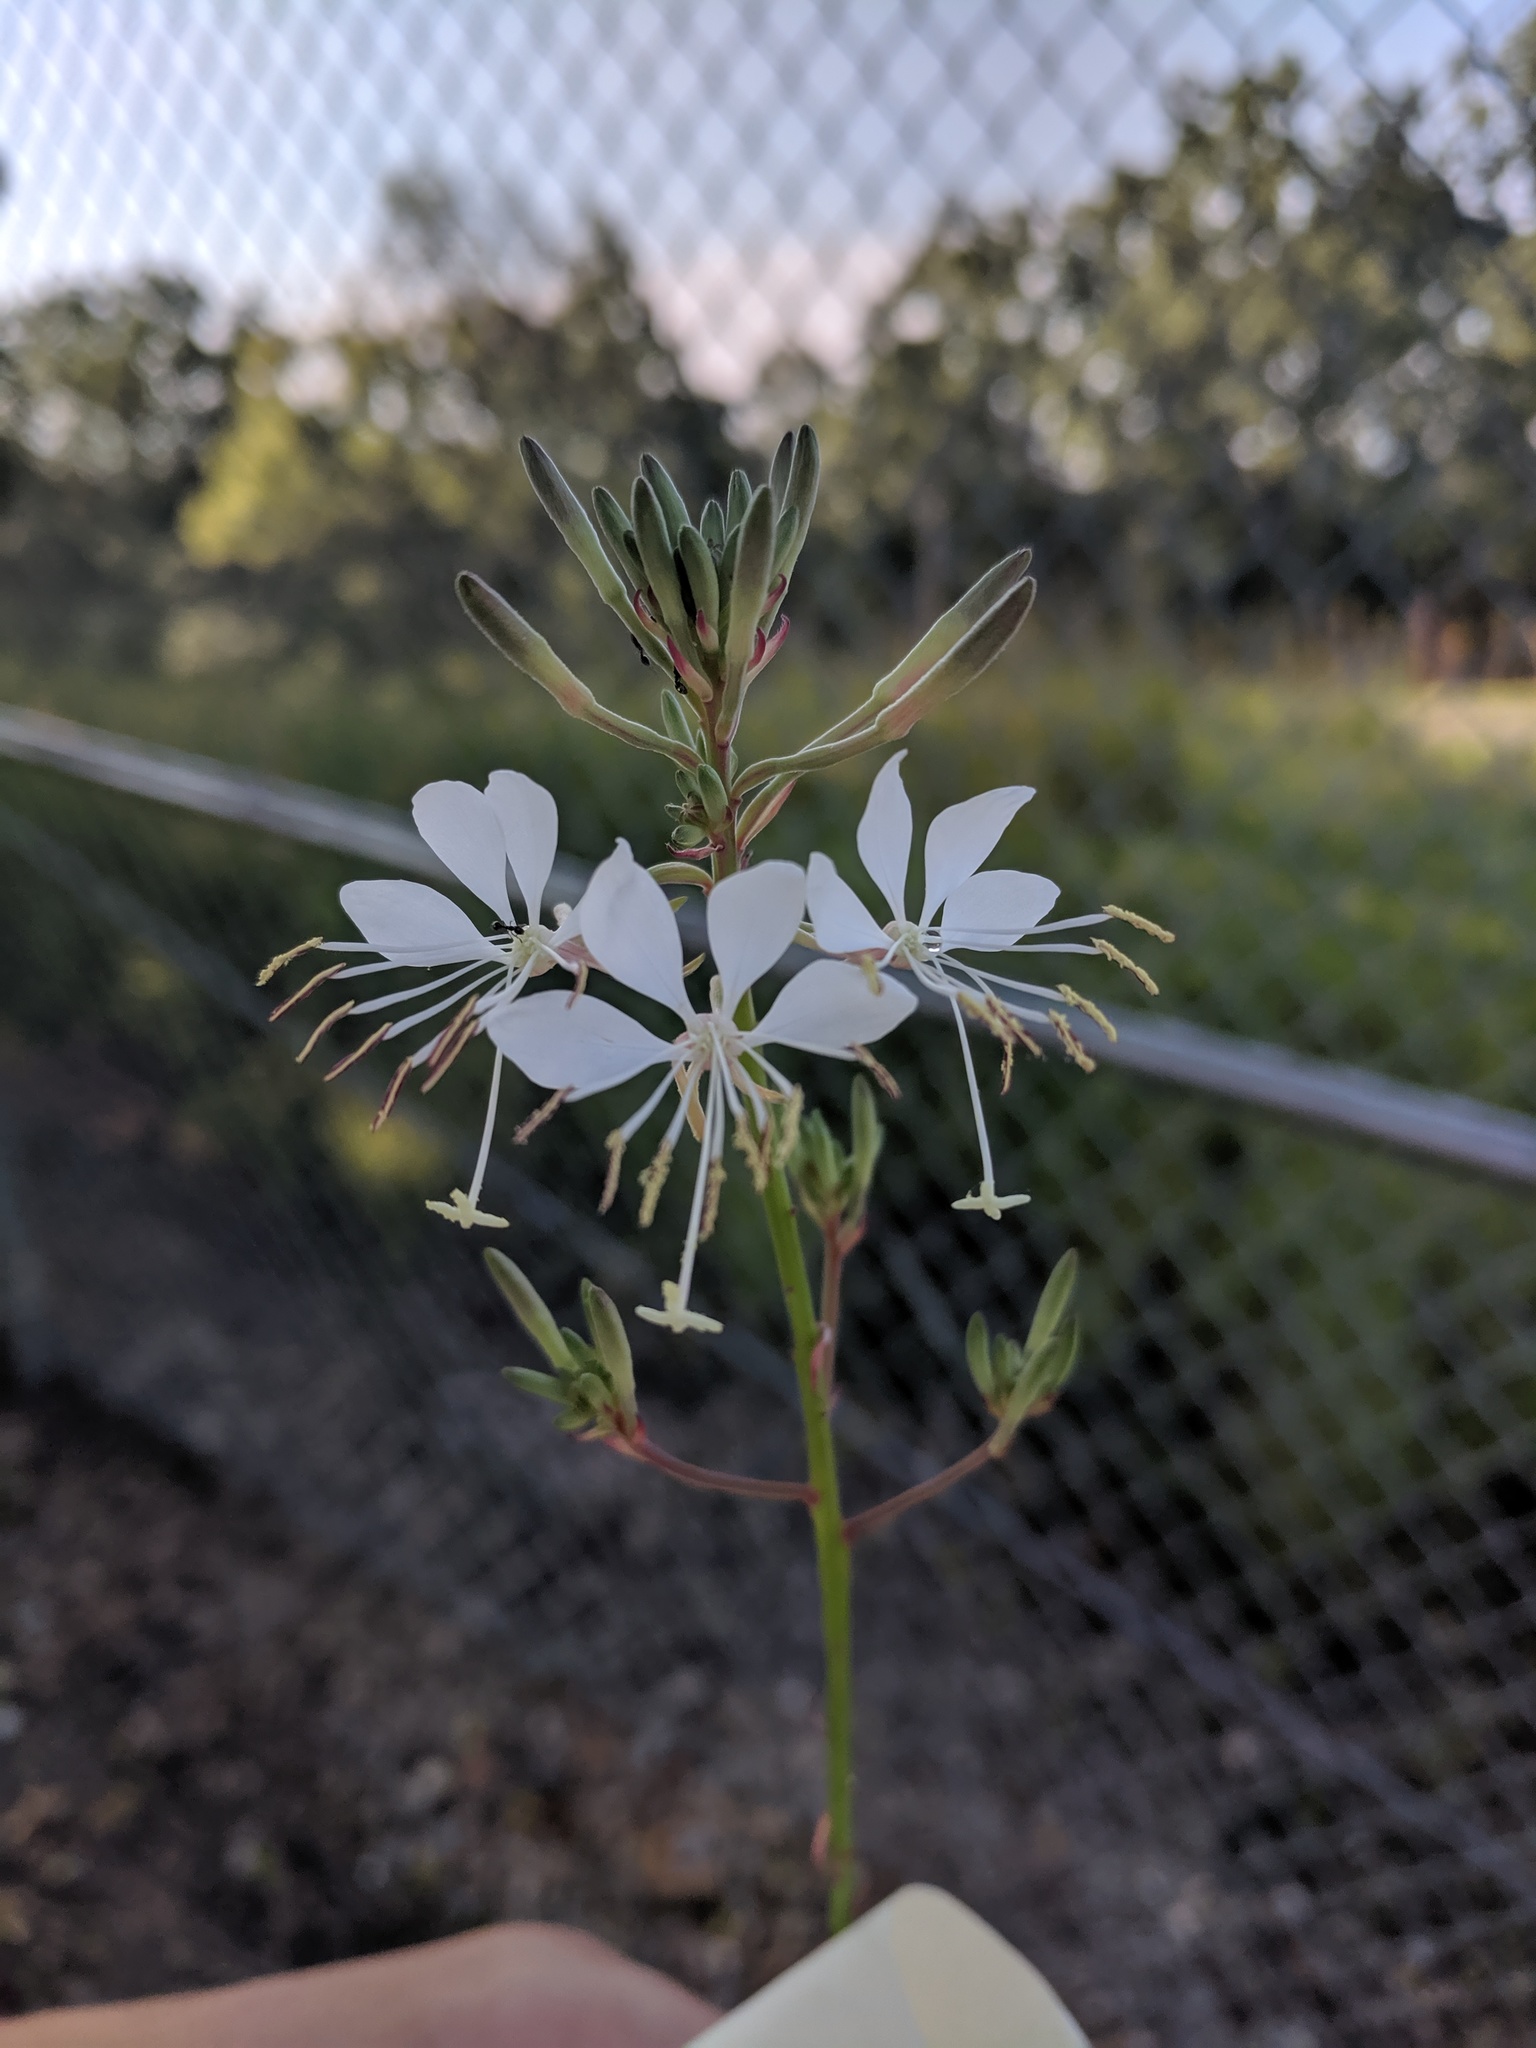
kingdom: Plantae
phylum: Tracheophyta
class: Magnoliopsida
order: Myrtales
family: Onagraceae
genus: Oenothera
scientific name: Oenothera filiformis
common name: Longflower beeblossom
